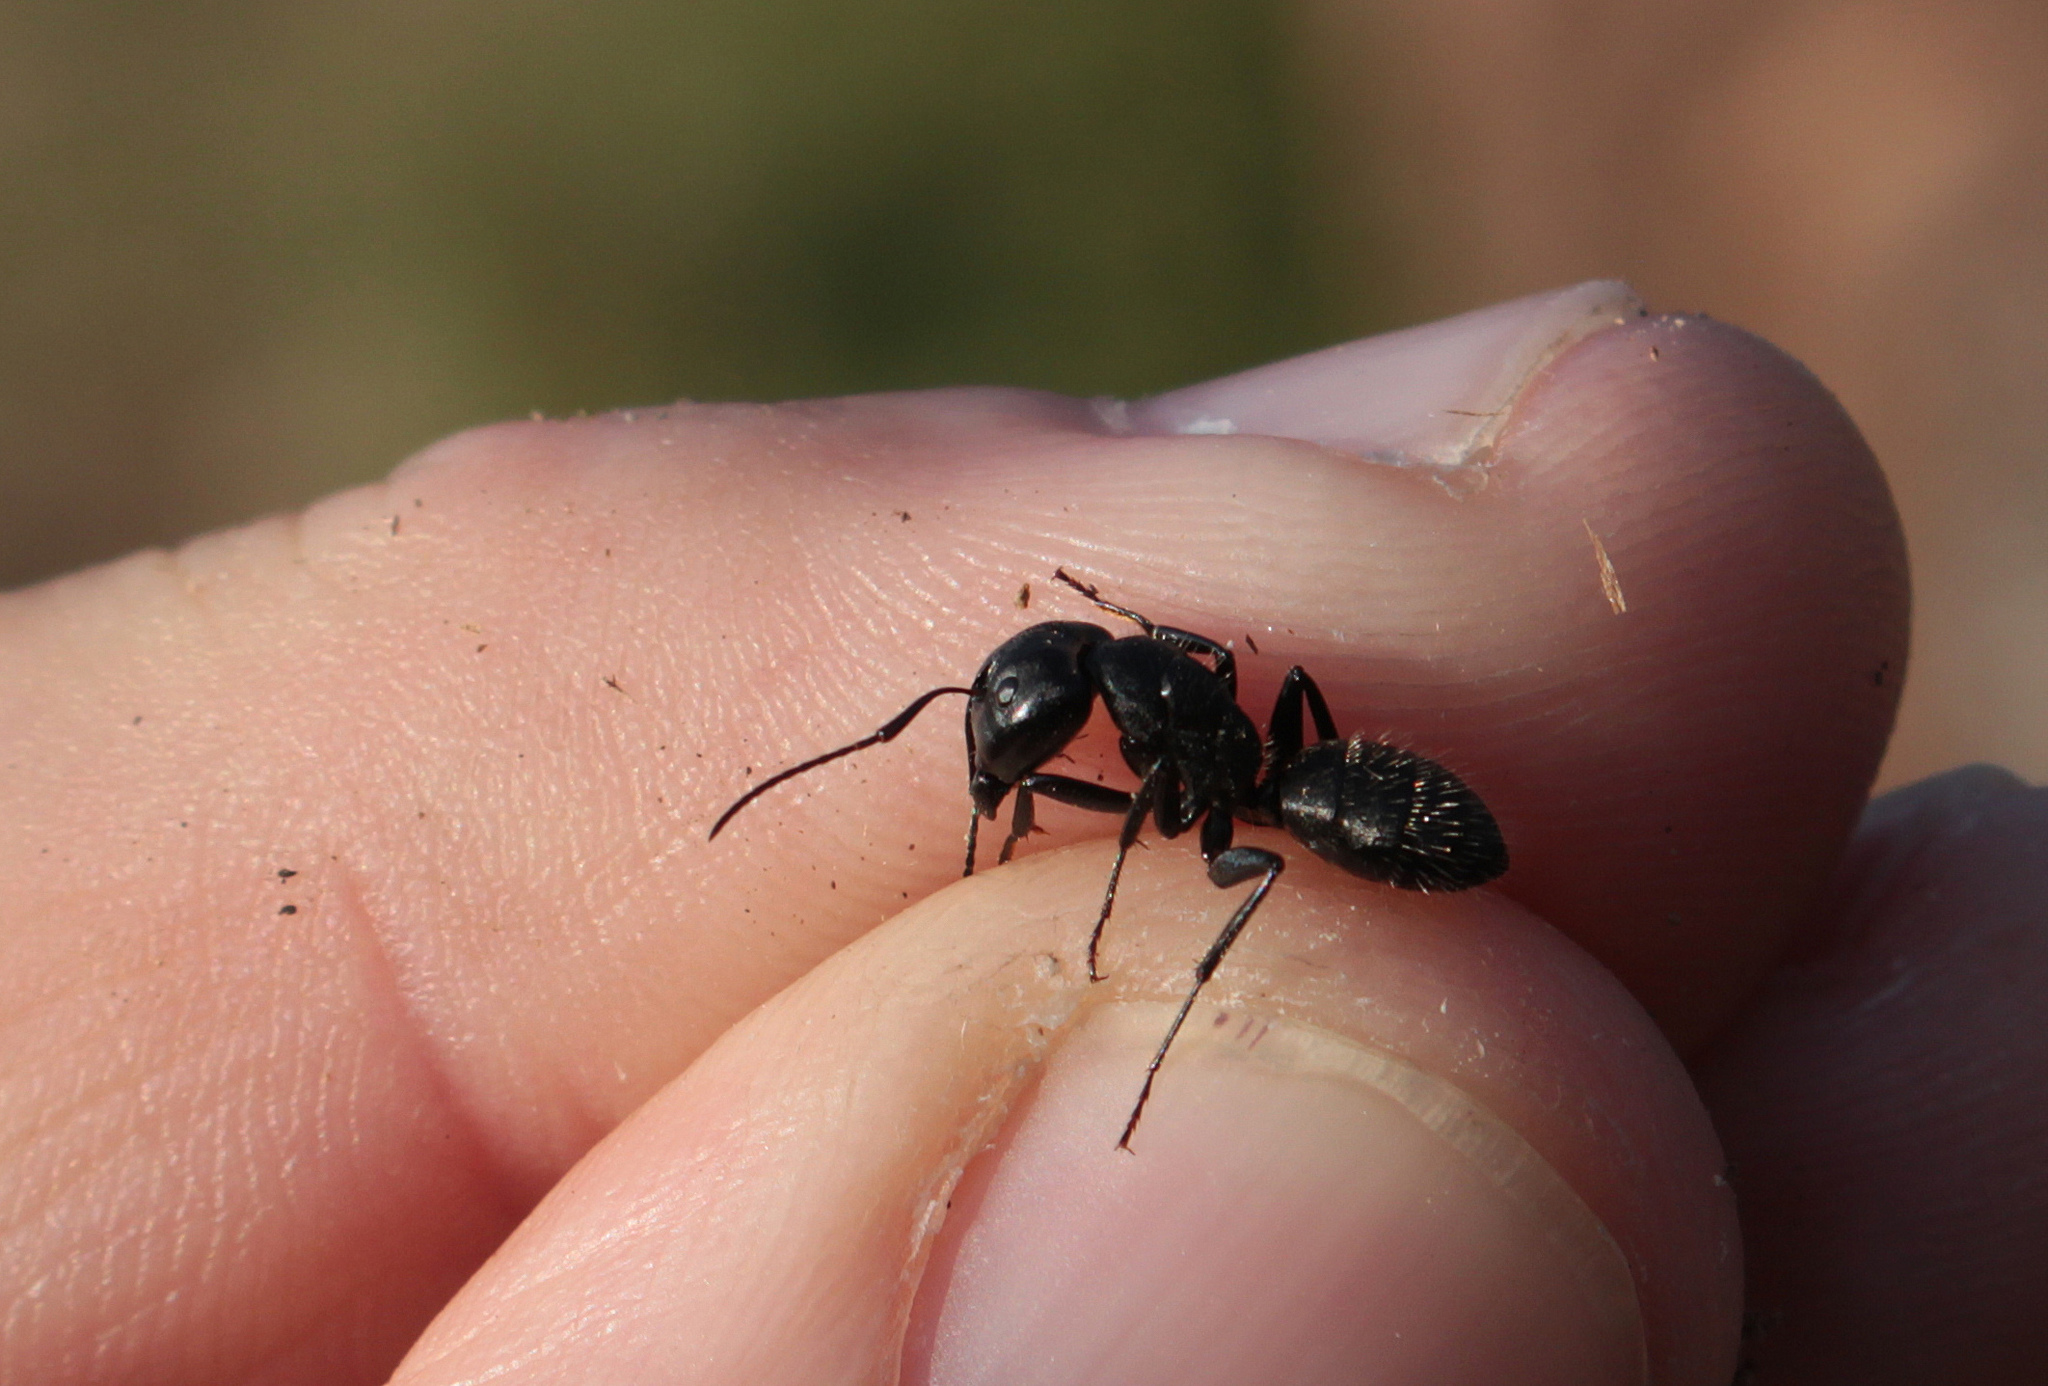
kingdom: Animalia
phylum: Arthropoda
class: Insecta
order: Hymenoptera
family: Formicidae
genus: Camponotus
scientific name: Camponotus vagus
